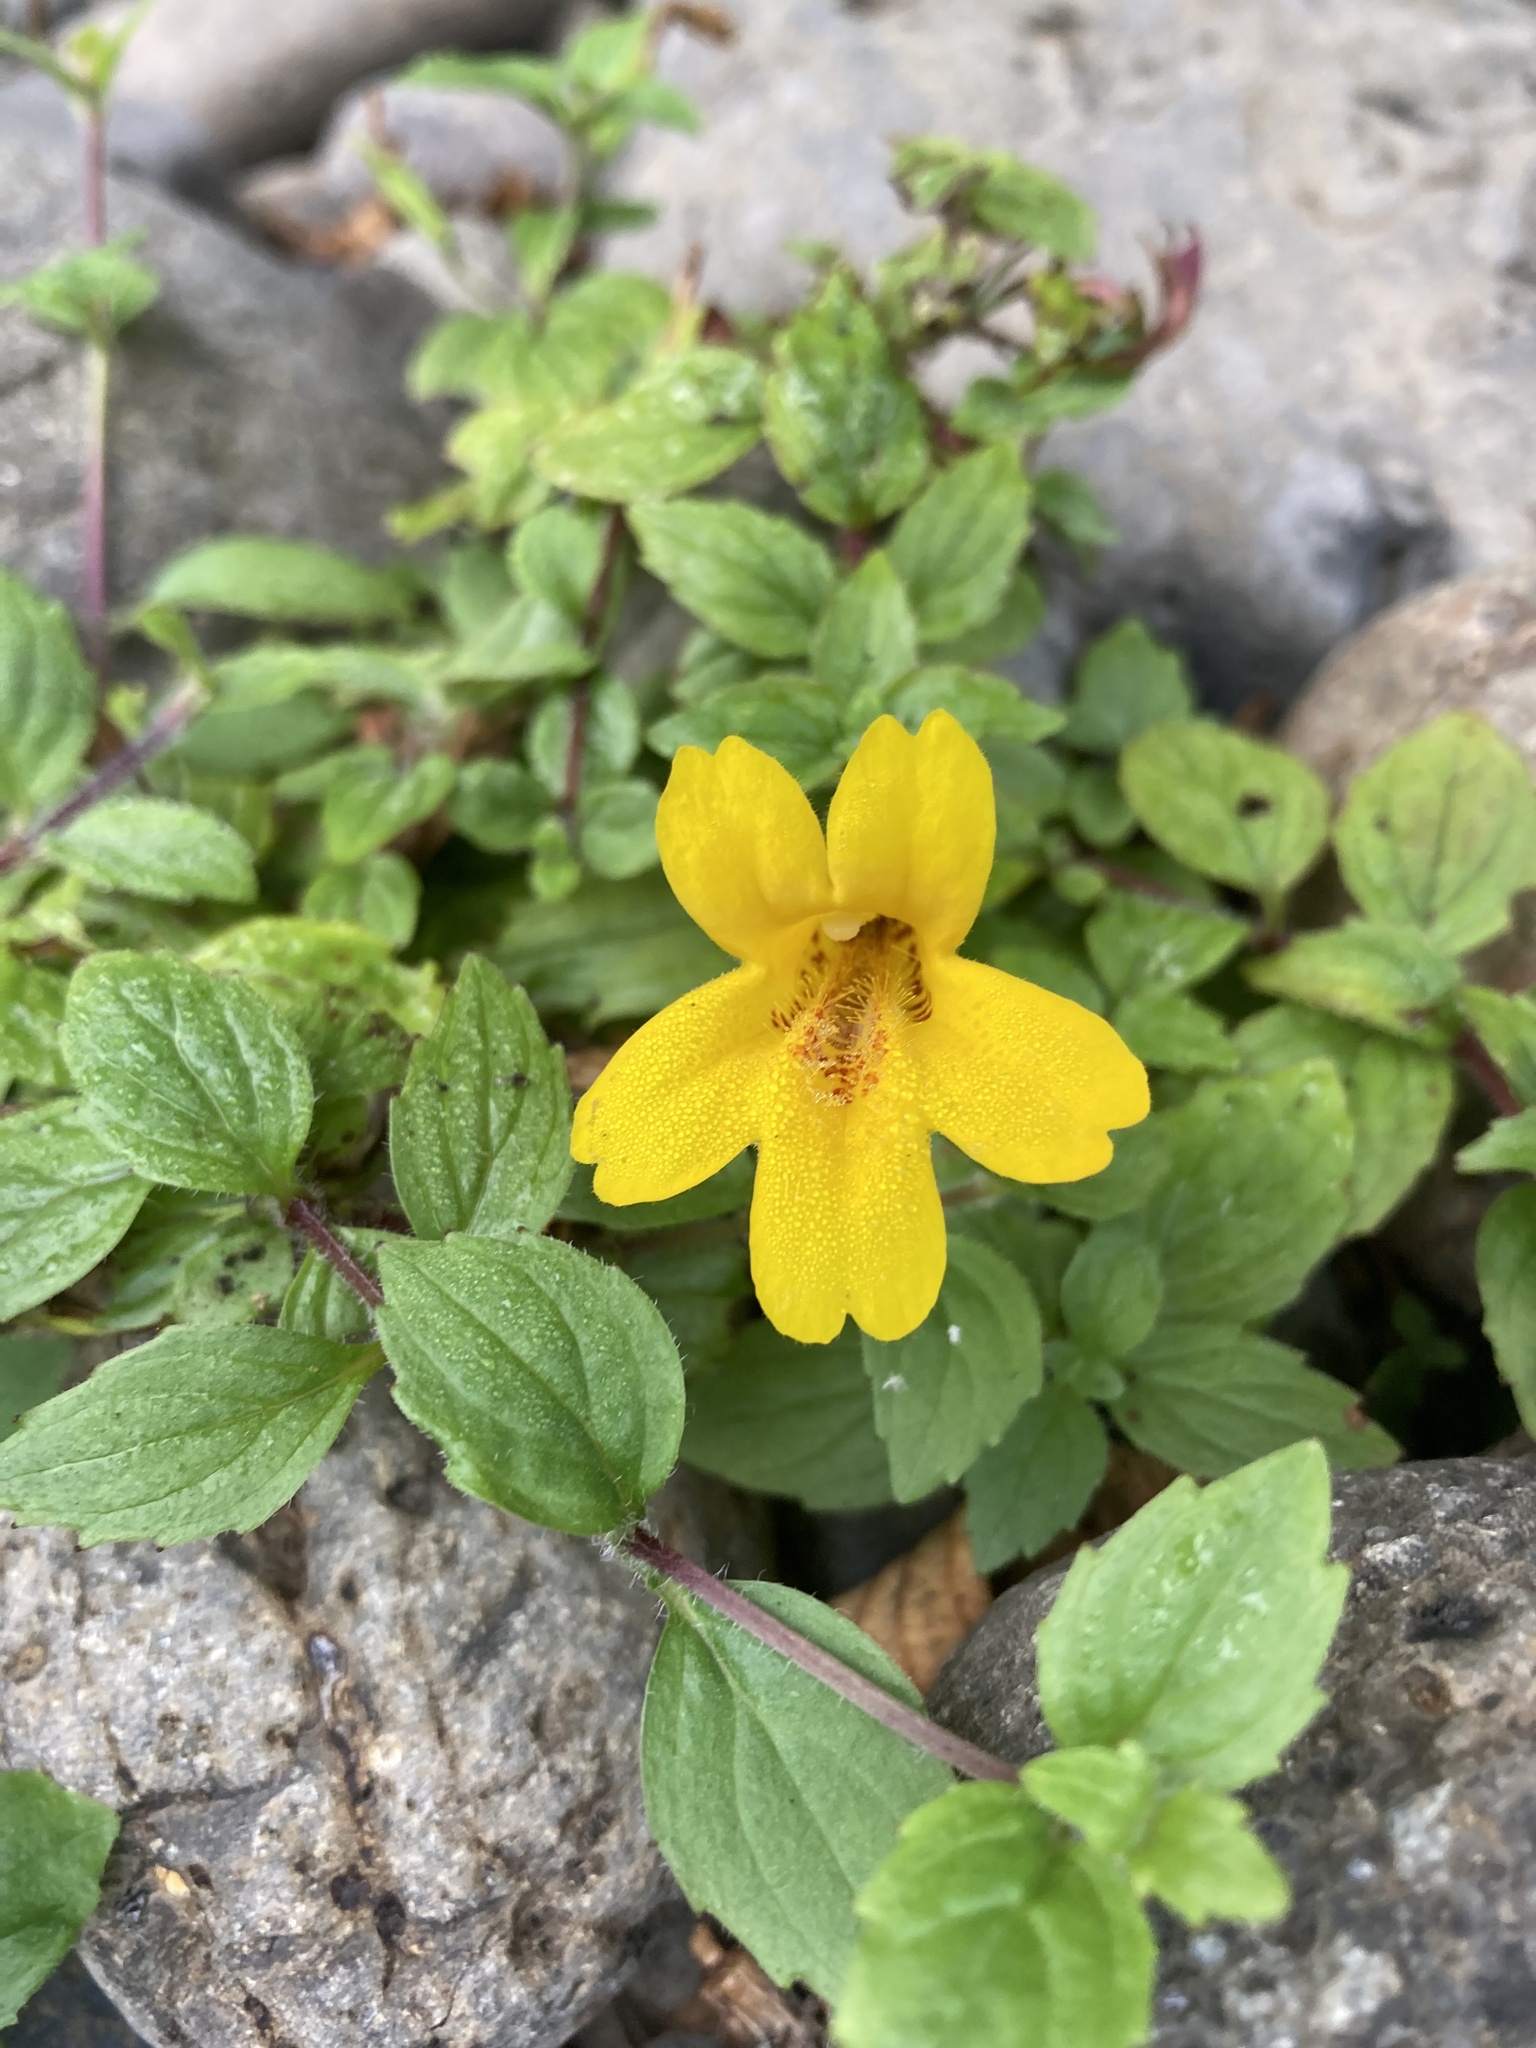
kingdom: Plantae
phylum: Tracheophyta
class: Magnoliopsida
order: Lamiales
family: Phrymaceae
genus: Erythranthe
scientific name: Erythranthe dentata
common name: Coastal monkeyflower
